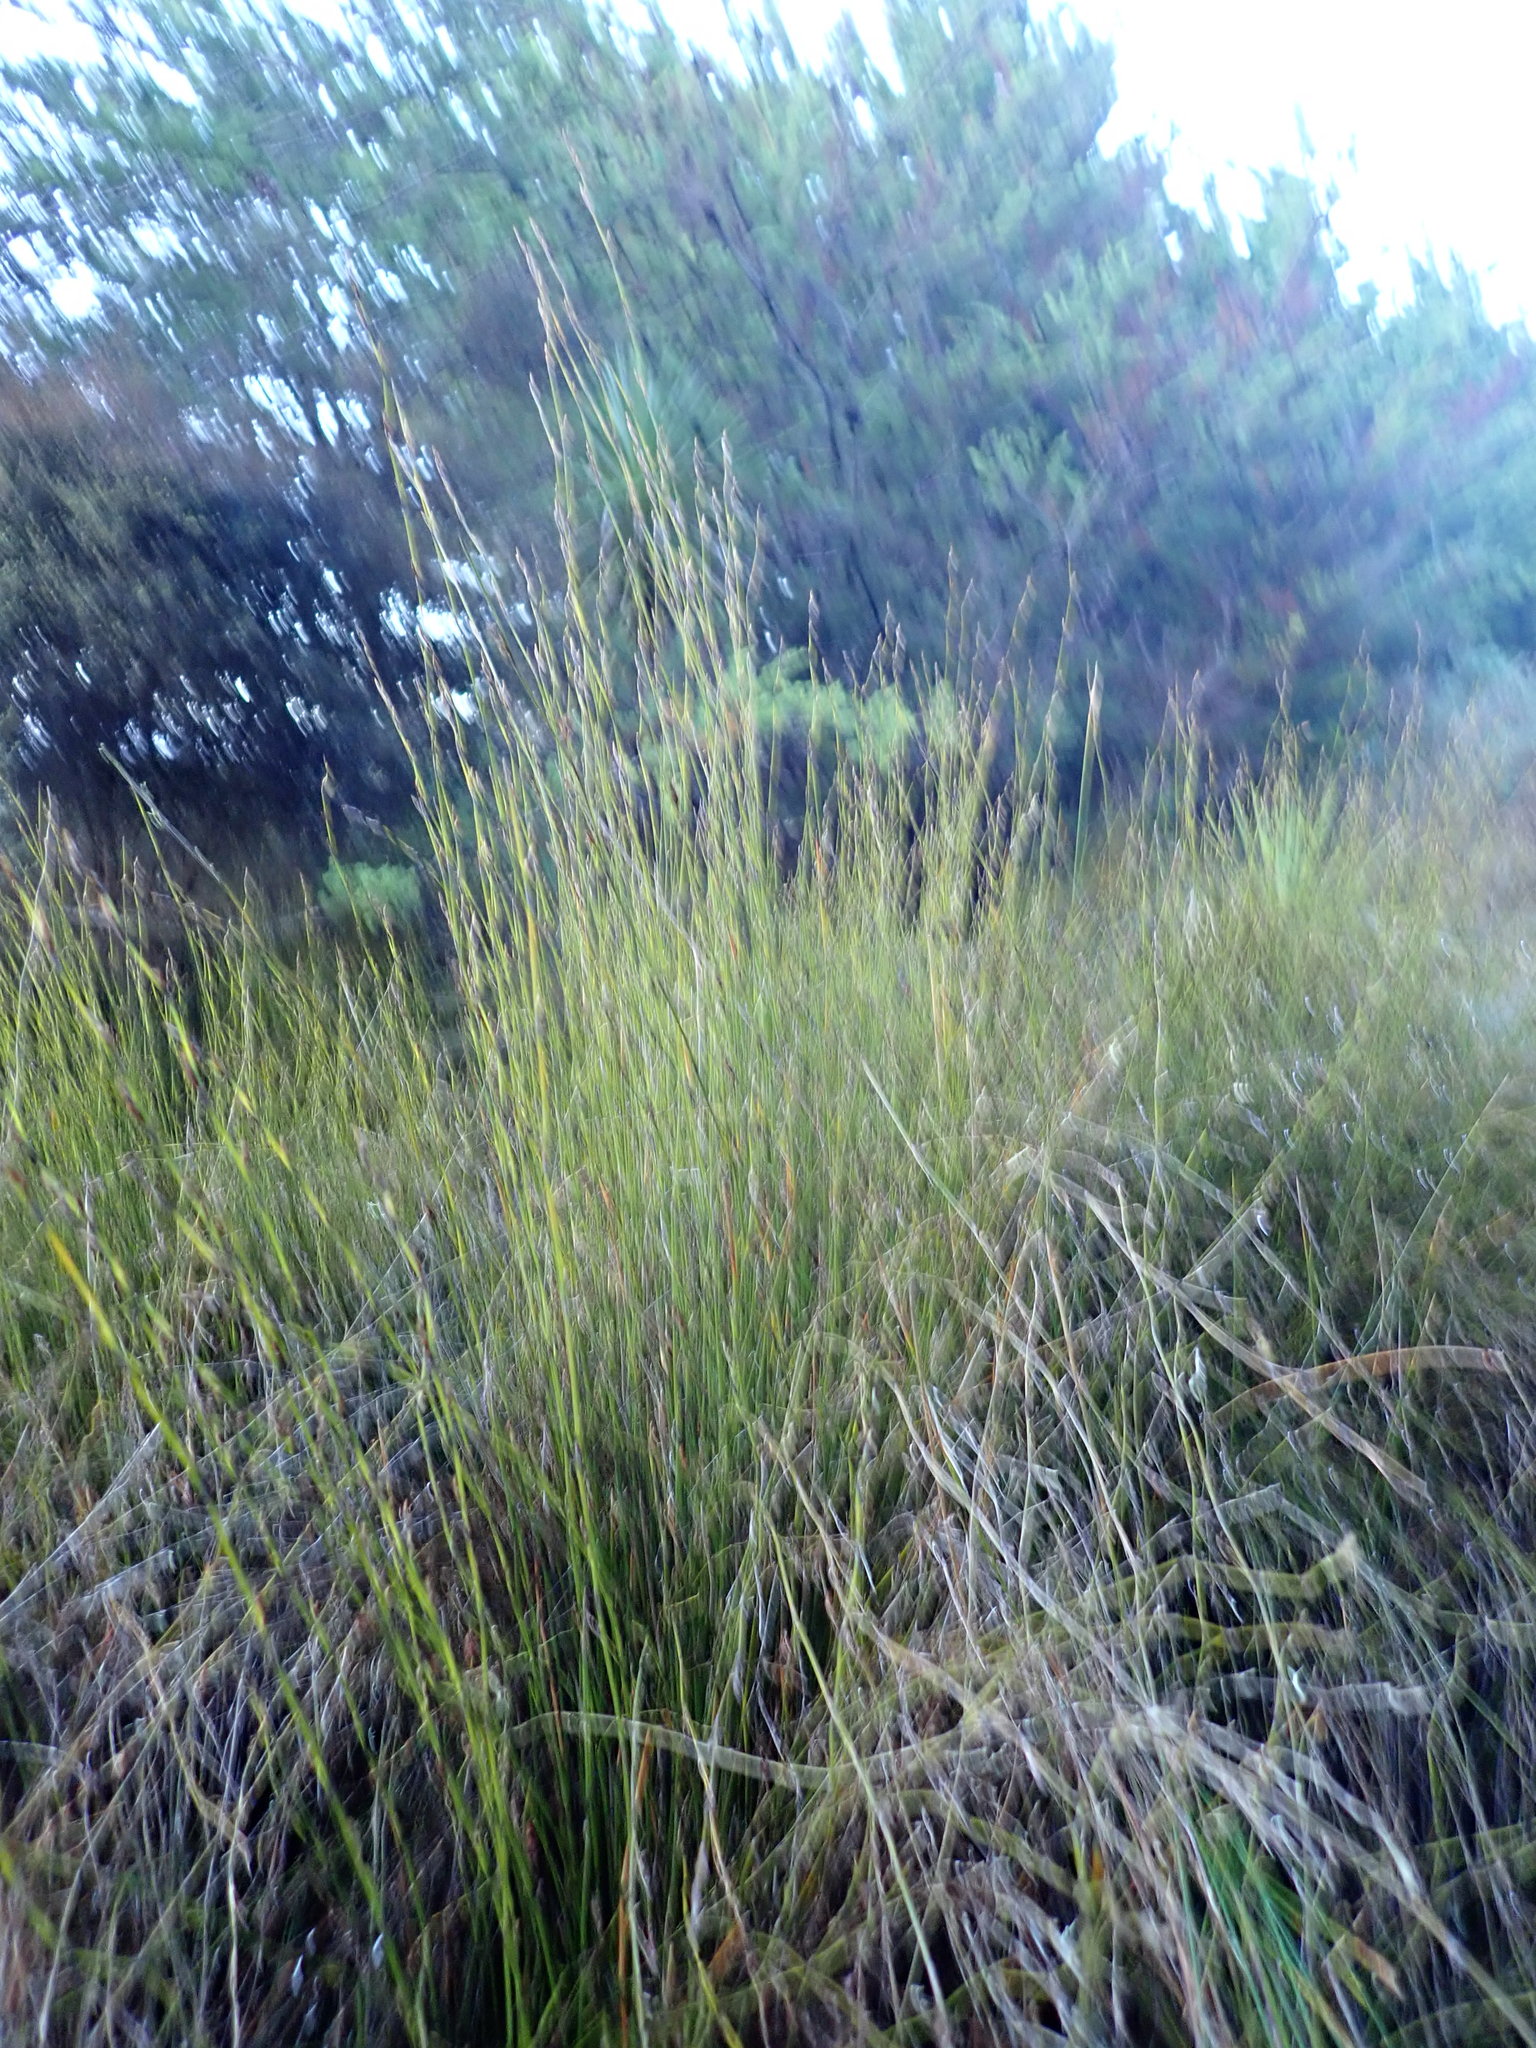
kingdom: Plantae
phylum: Tracheophyta
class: Liliopsida
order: Poales
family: Restionaceae
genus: Apodasmia
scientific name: Apodasmia similis
